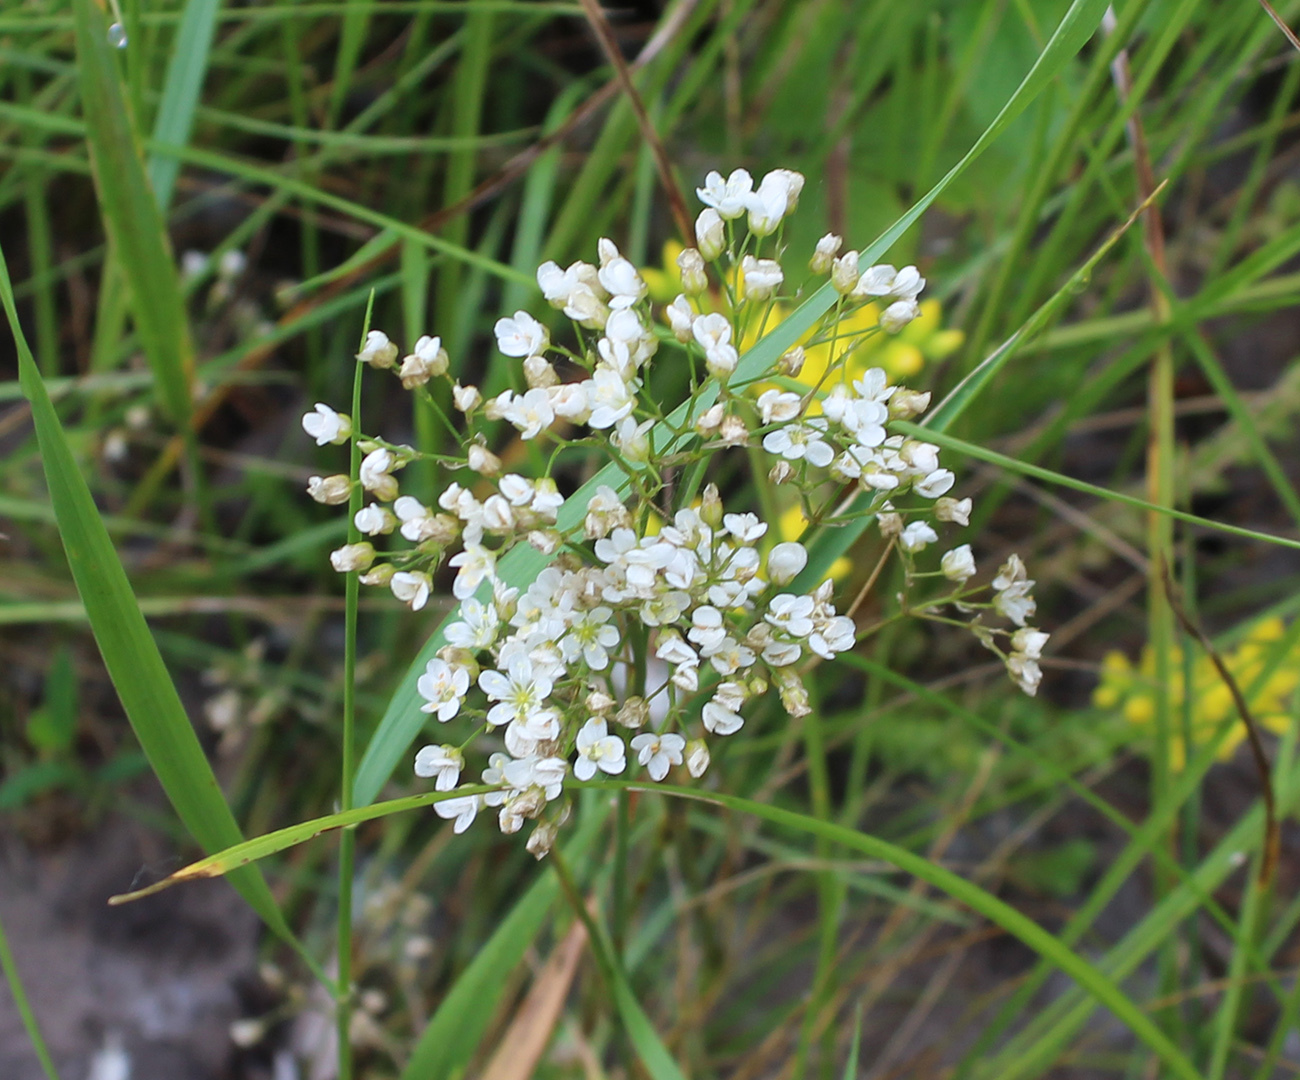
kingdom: Plantae
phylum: Tracheophyta
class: Magnoliopsida
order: Caryophyllales
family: Caryophyllaceae
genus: Eremogone
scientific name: Eremogone longifolia
